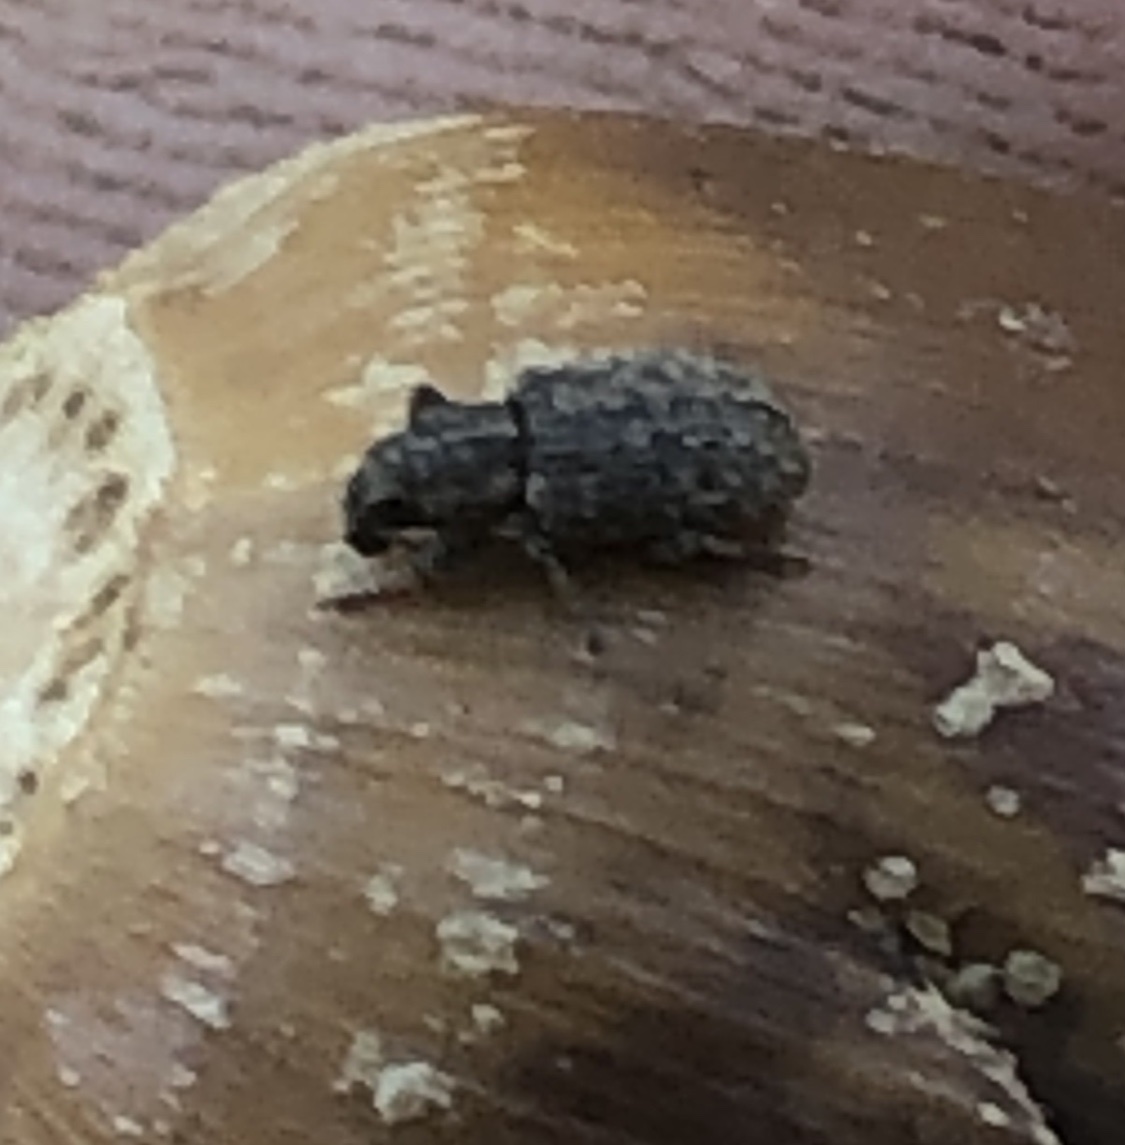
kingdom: Animalia
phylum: Arthropoda
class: Insecta
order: Coleoptera
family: Curculionidae
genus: Sitona
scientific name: Sitona hispidulus
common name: Clover weevil
